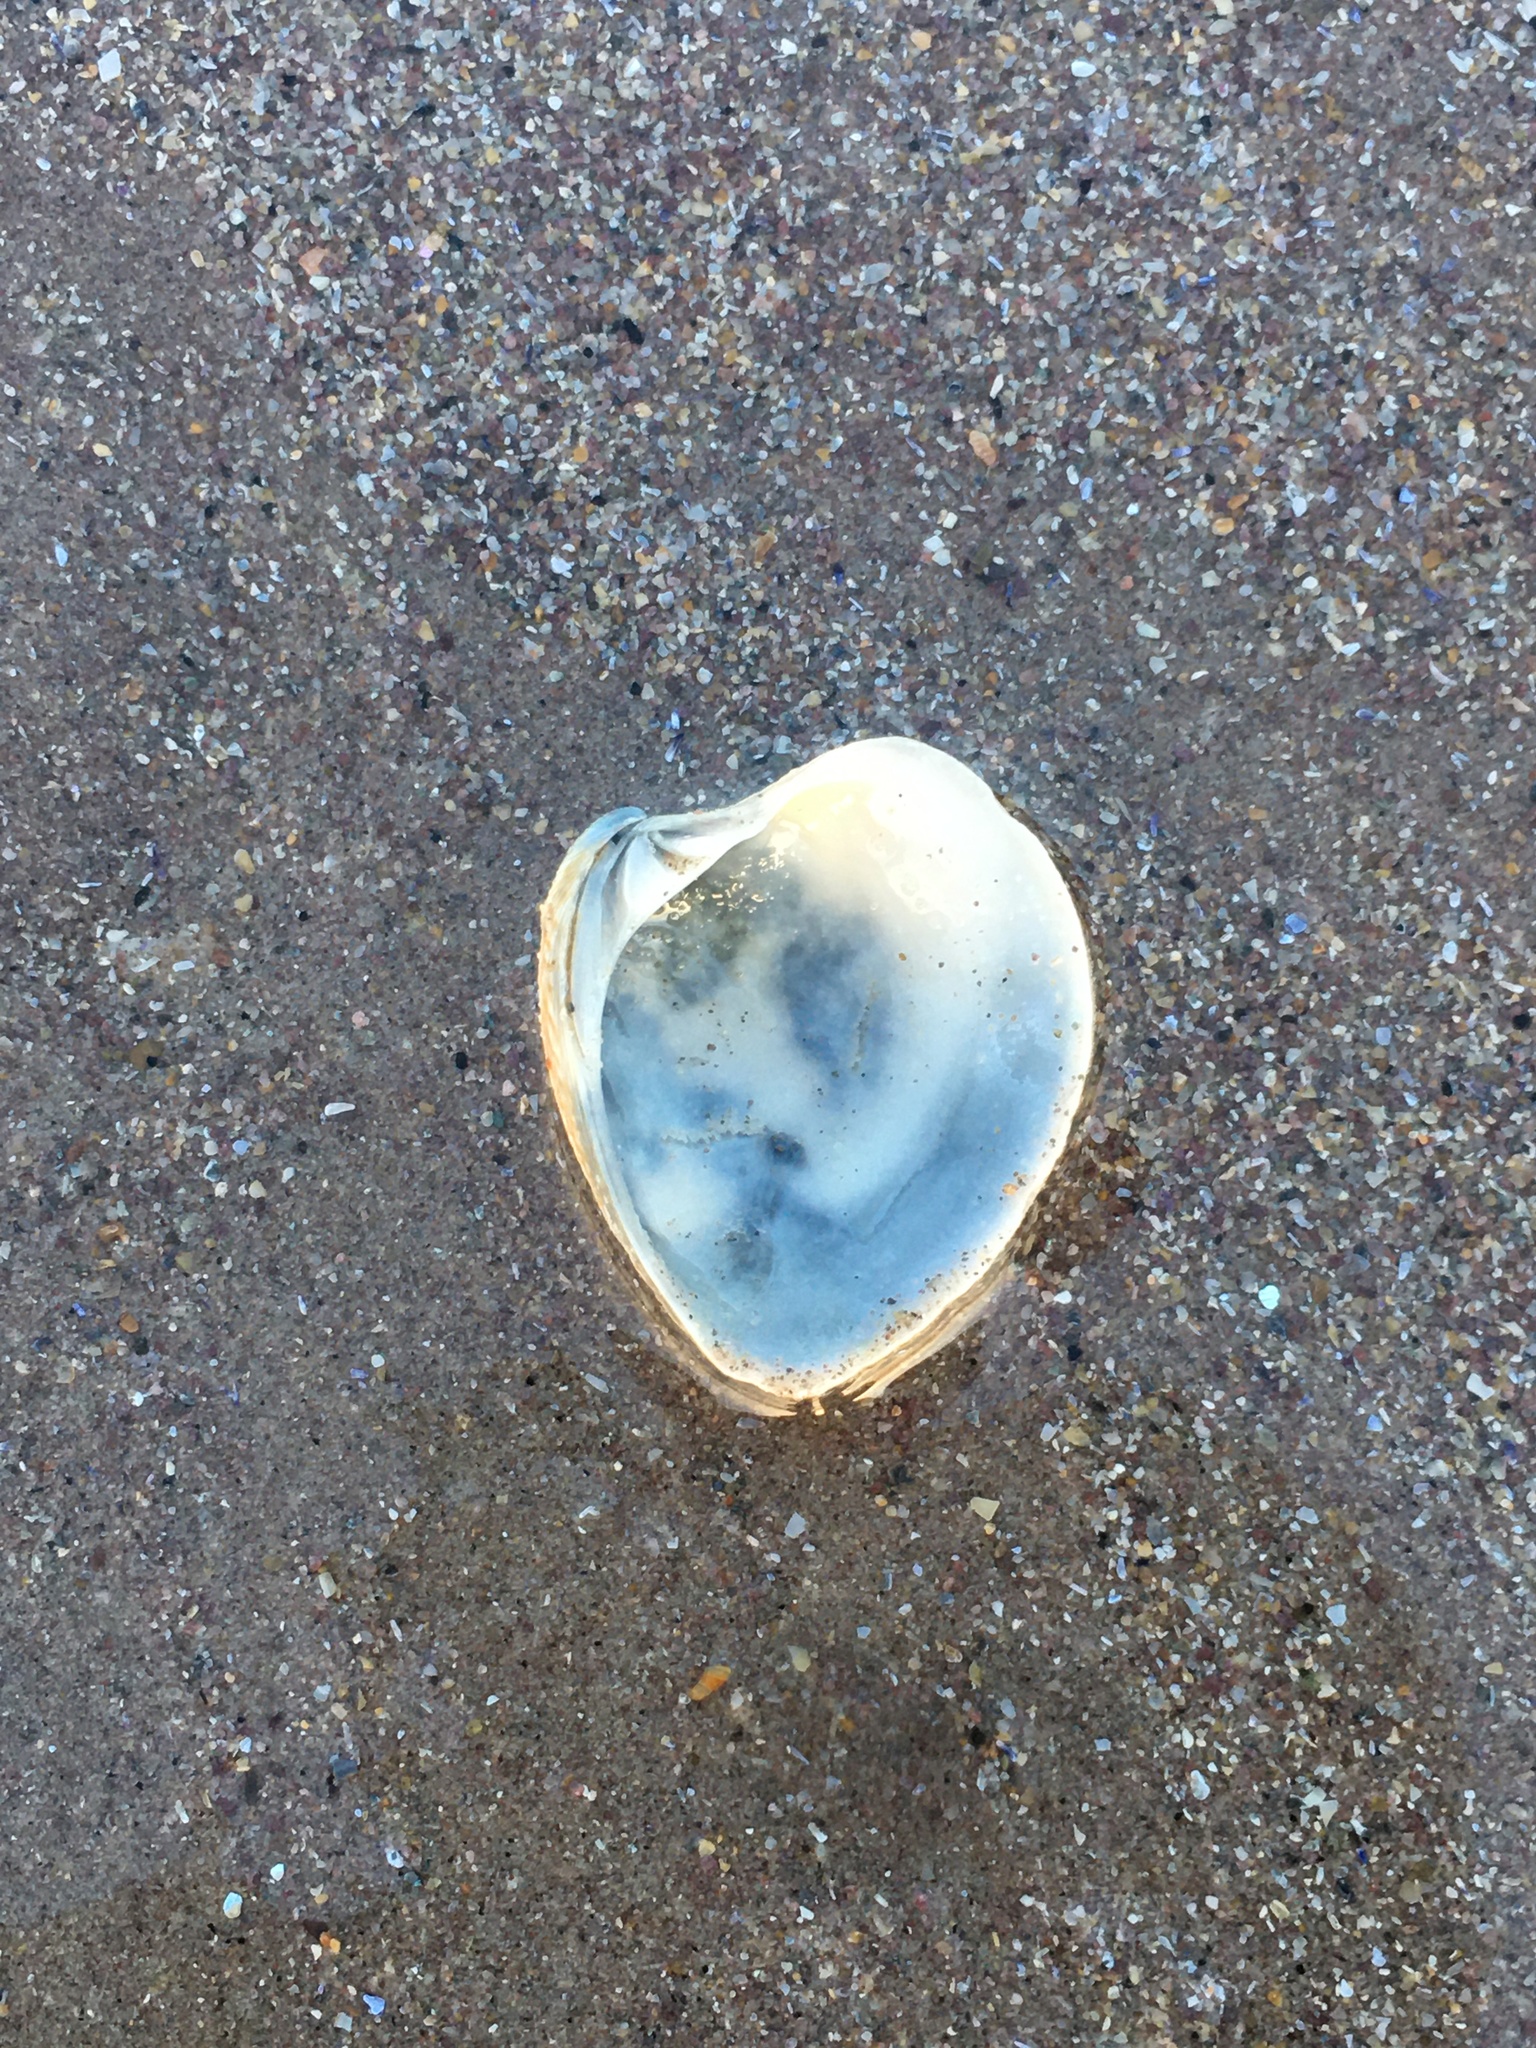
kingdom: Animalia
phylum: Mollusca
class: Bivalvia
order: Venerida
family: Veneridae
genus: Chamelea
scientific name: Chamelea striatula
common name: Striped venus
